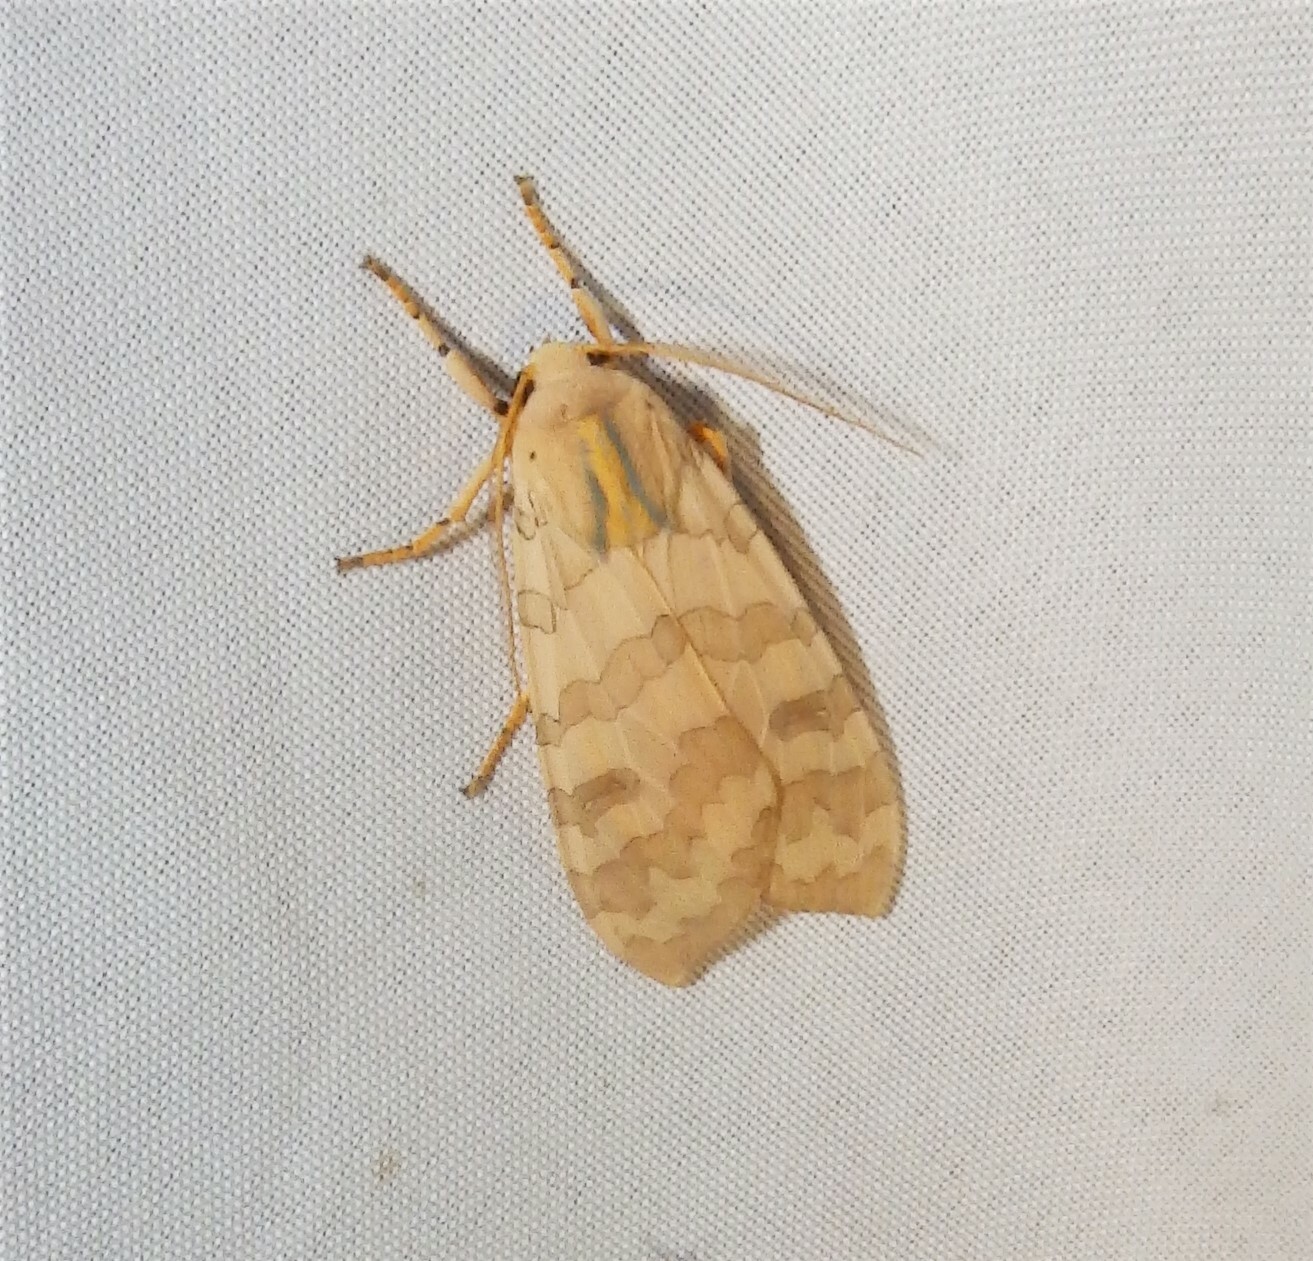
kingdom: Animalia
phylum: Arthropoda
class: Insecta
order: Lepidoptera
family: Erebidae
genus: Halysidota
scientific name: Halysidota
